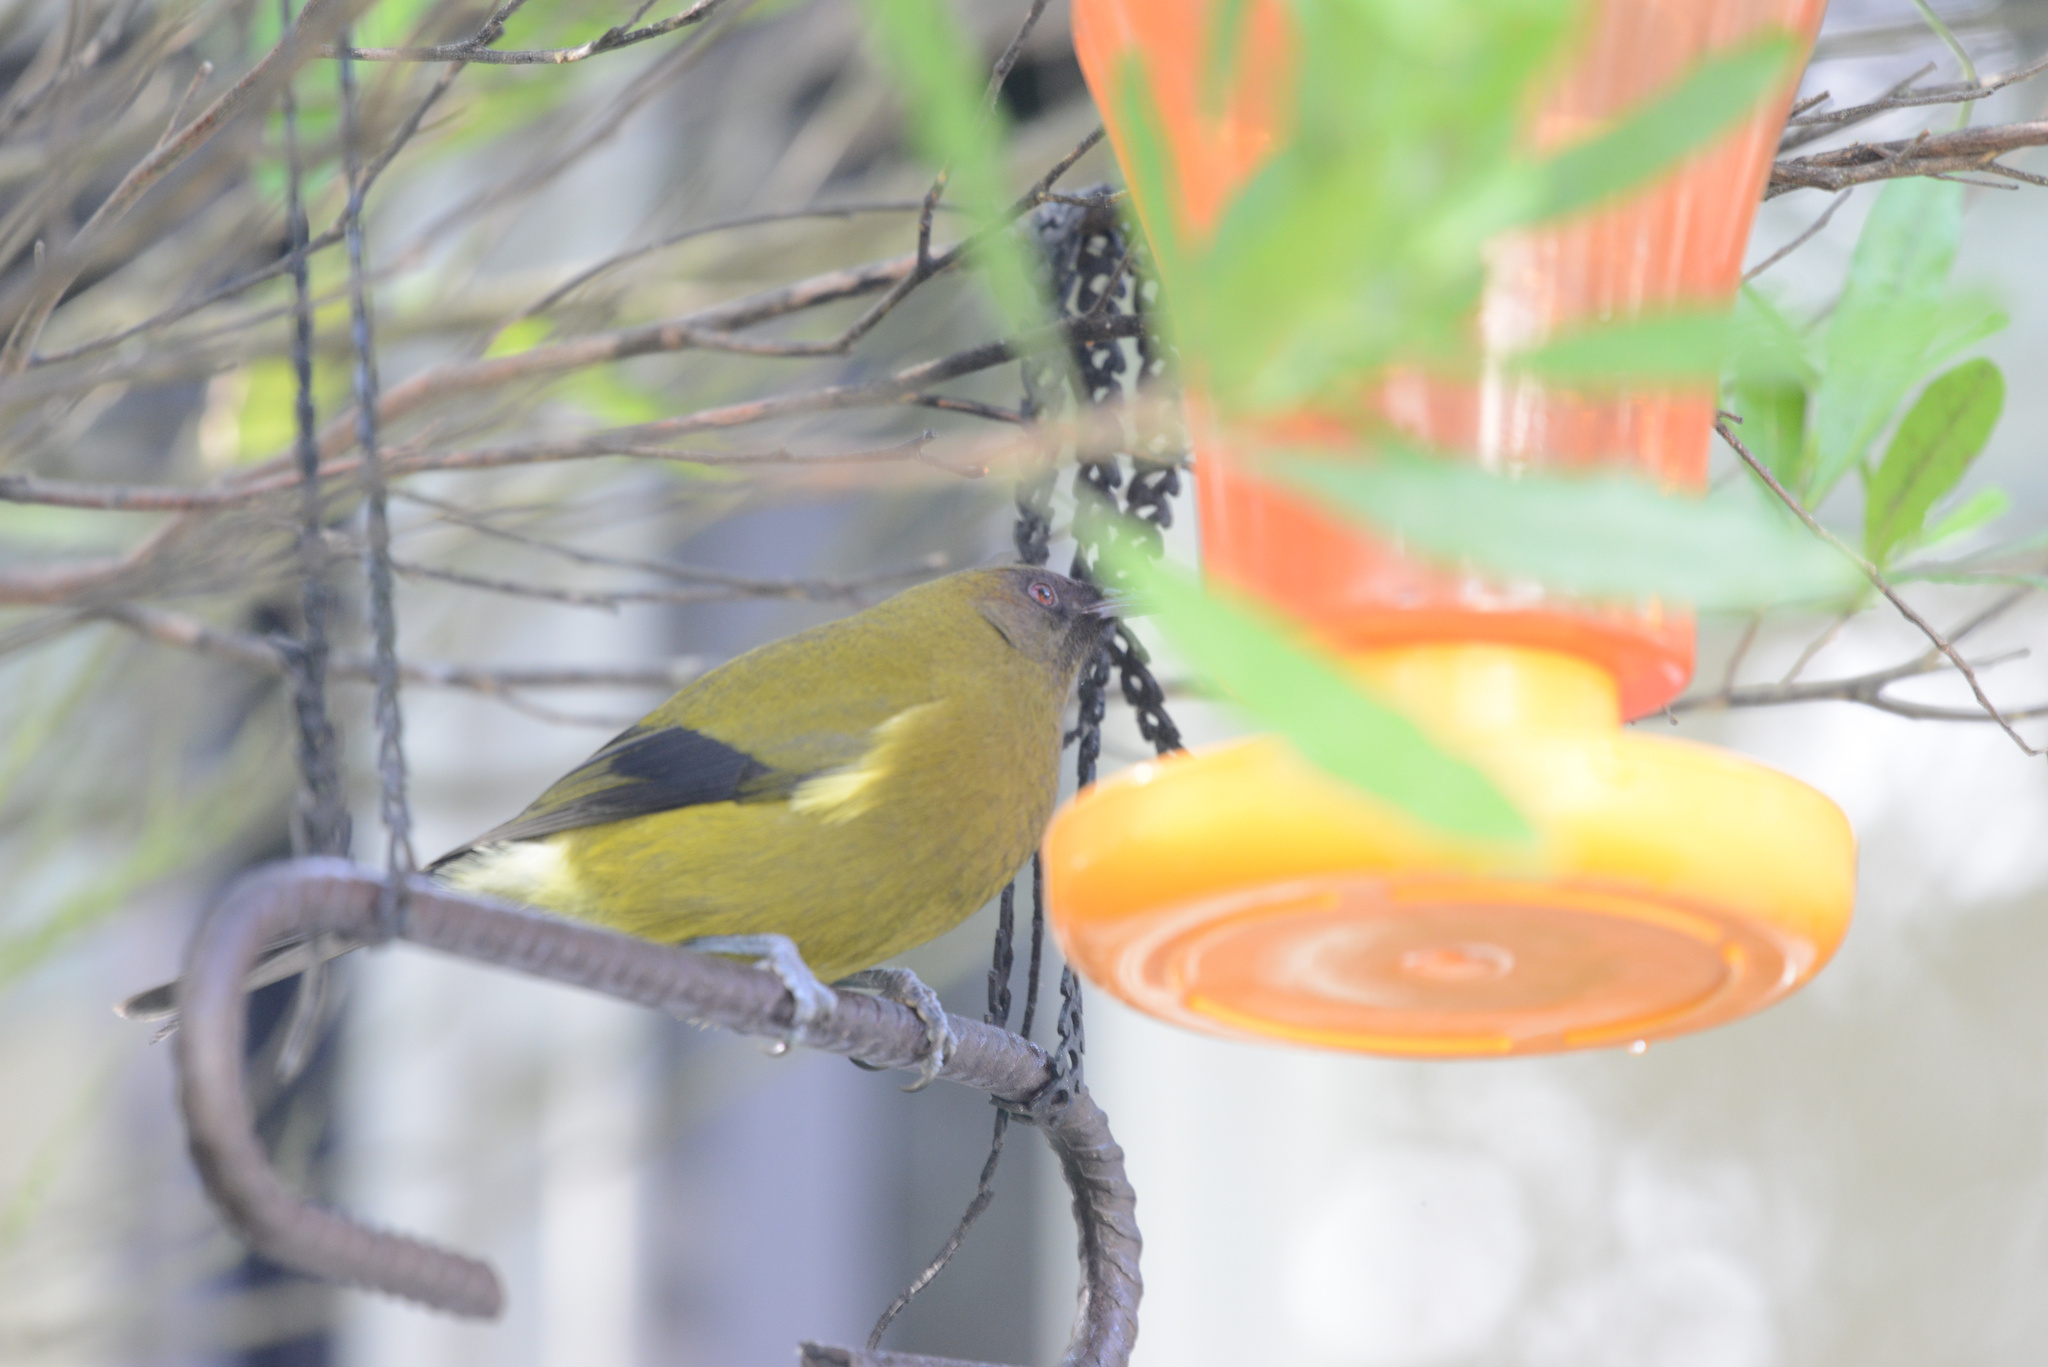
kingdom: Animalia
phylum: Chordata
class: Aves
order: Passeriformes
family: Meliphagidae
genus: Anthornis
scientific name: Anthornis melanura
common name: New zealand bellbird
